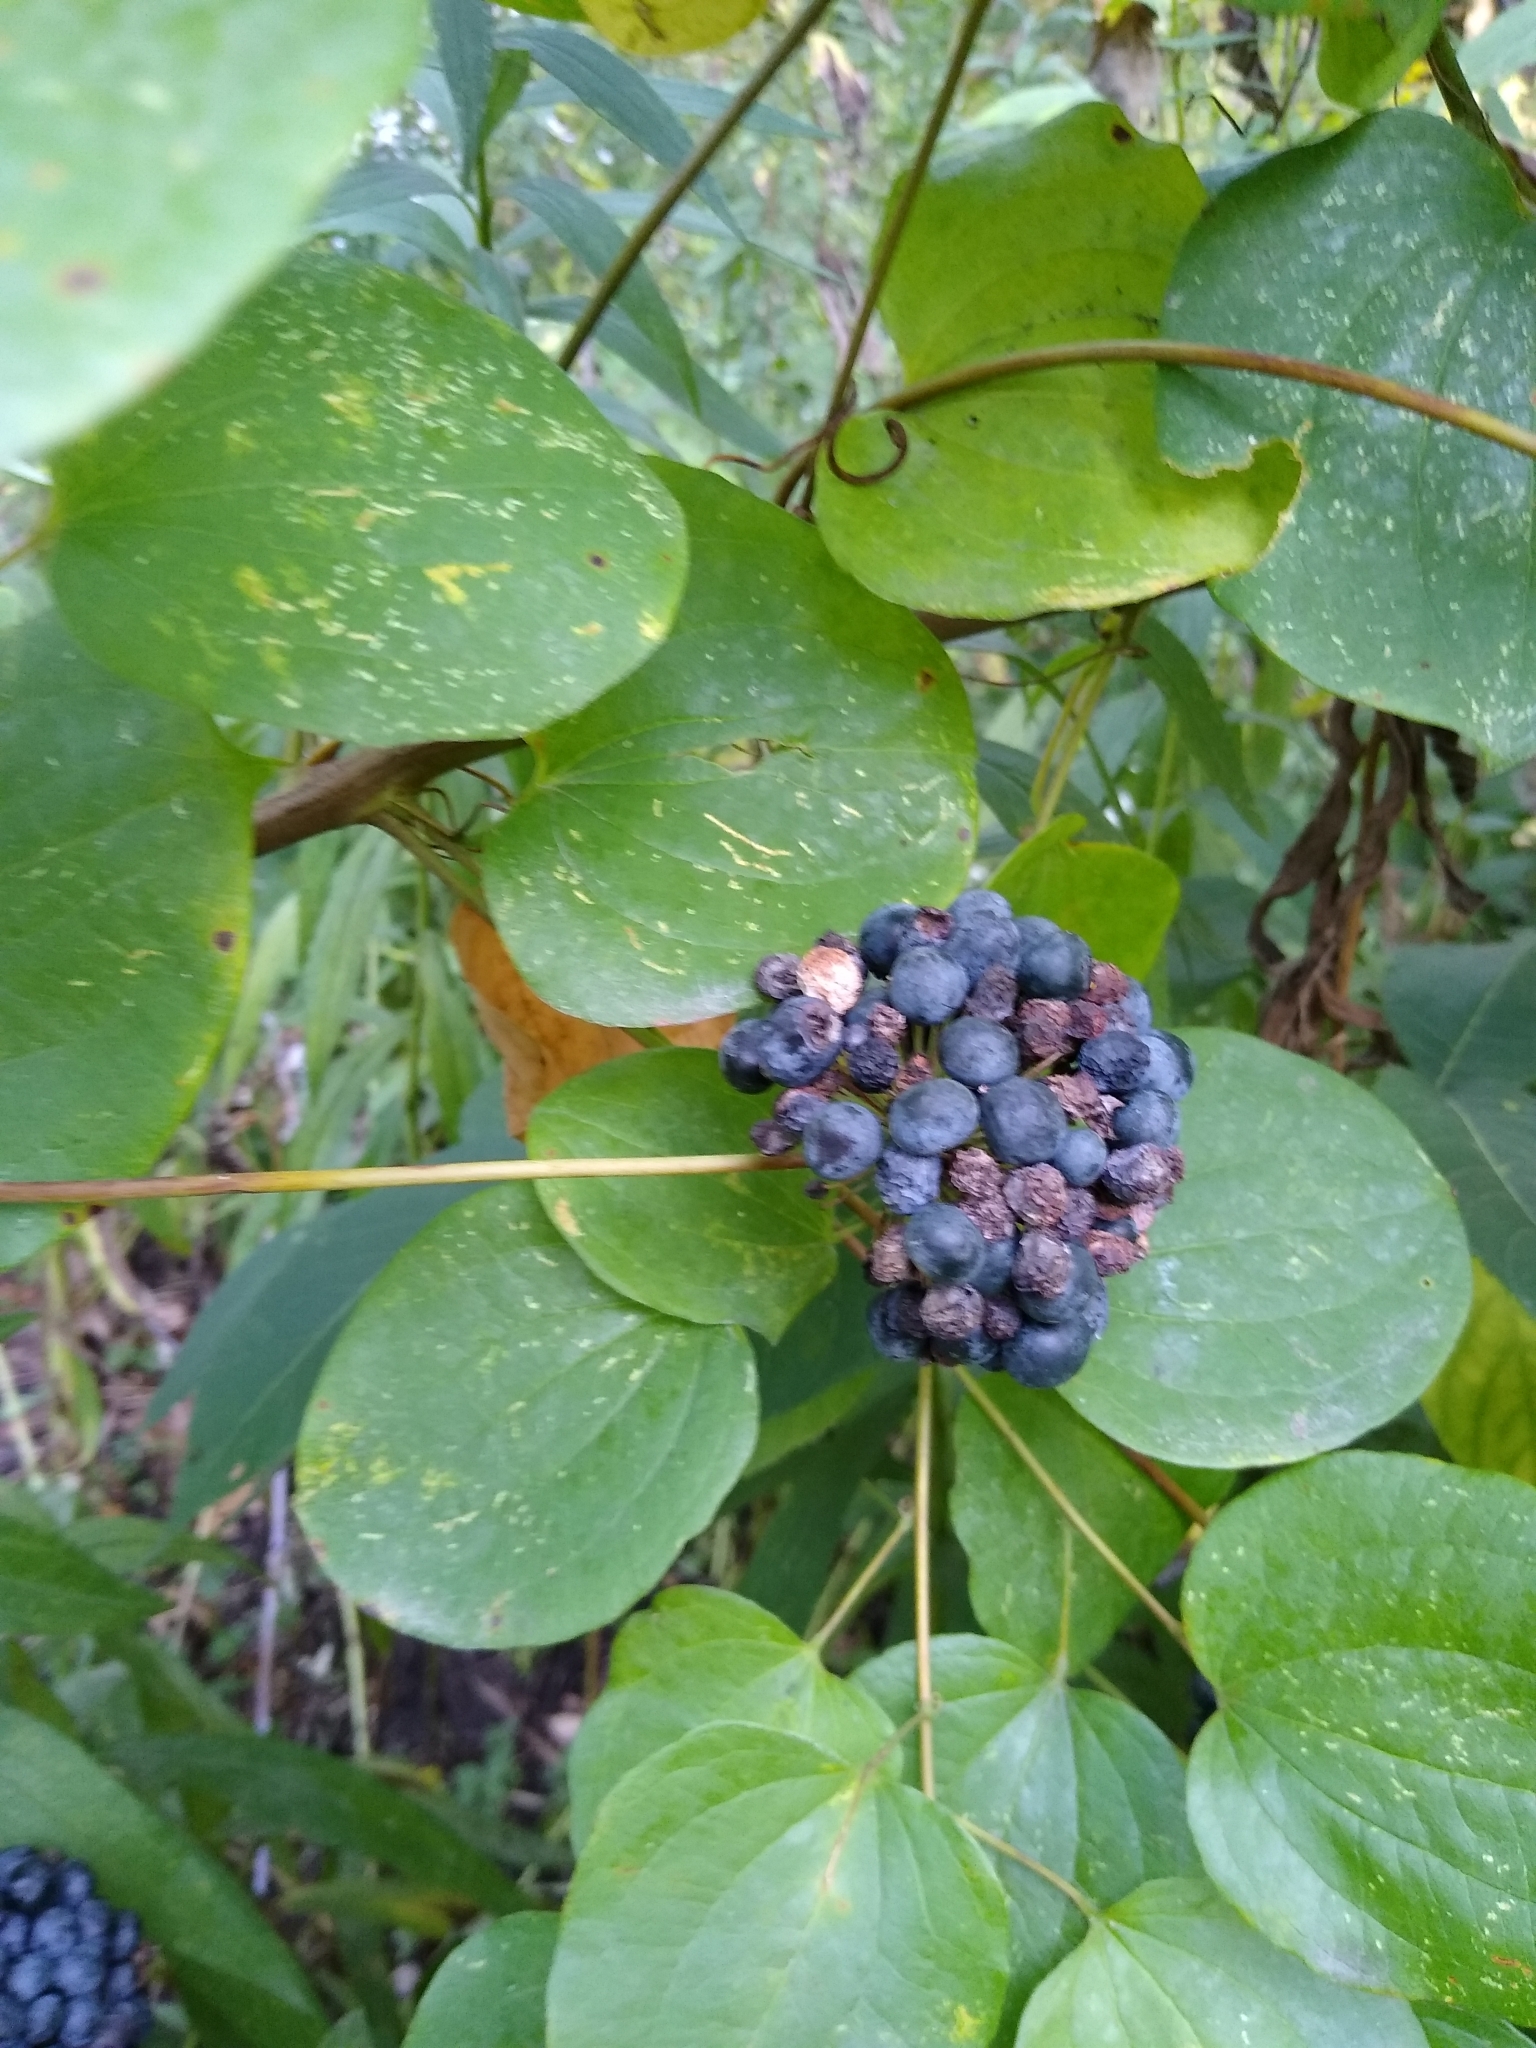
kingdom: Plantae
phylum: Tracheophyta
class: Liliopsida
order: Liliales
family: Smilacaceae
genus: Smilax
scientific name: Smilax lasioneura
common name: Blue ridge carrionflower
